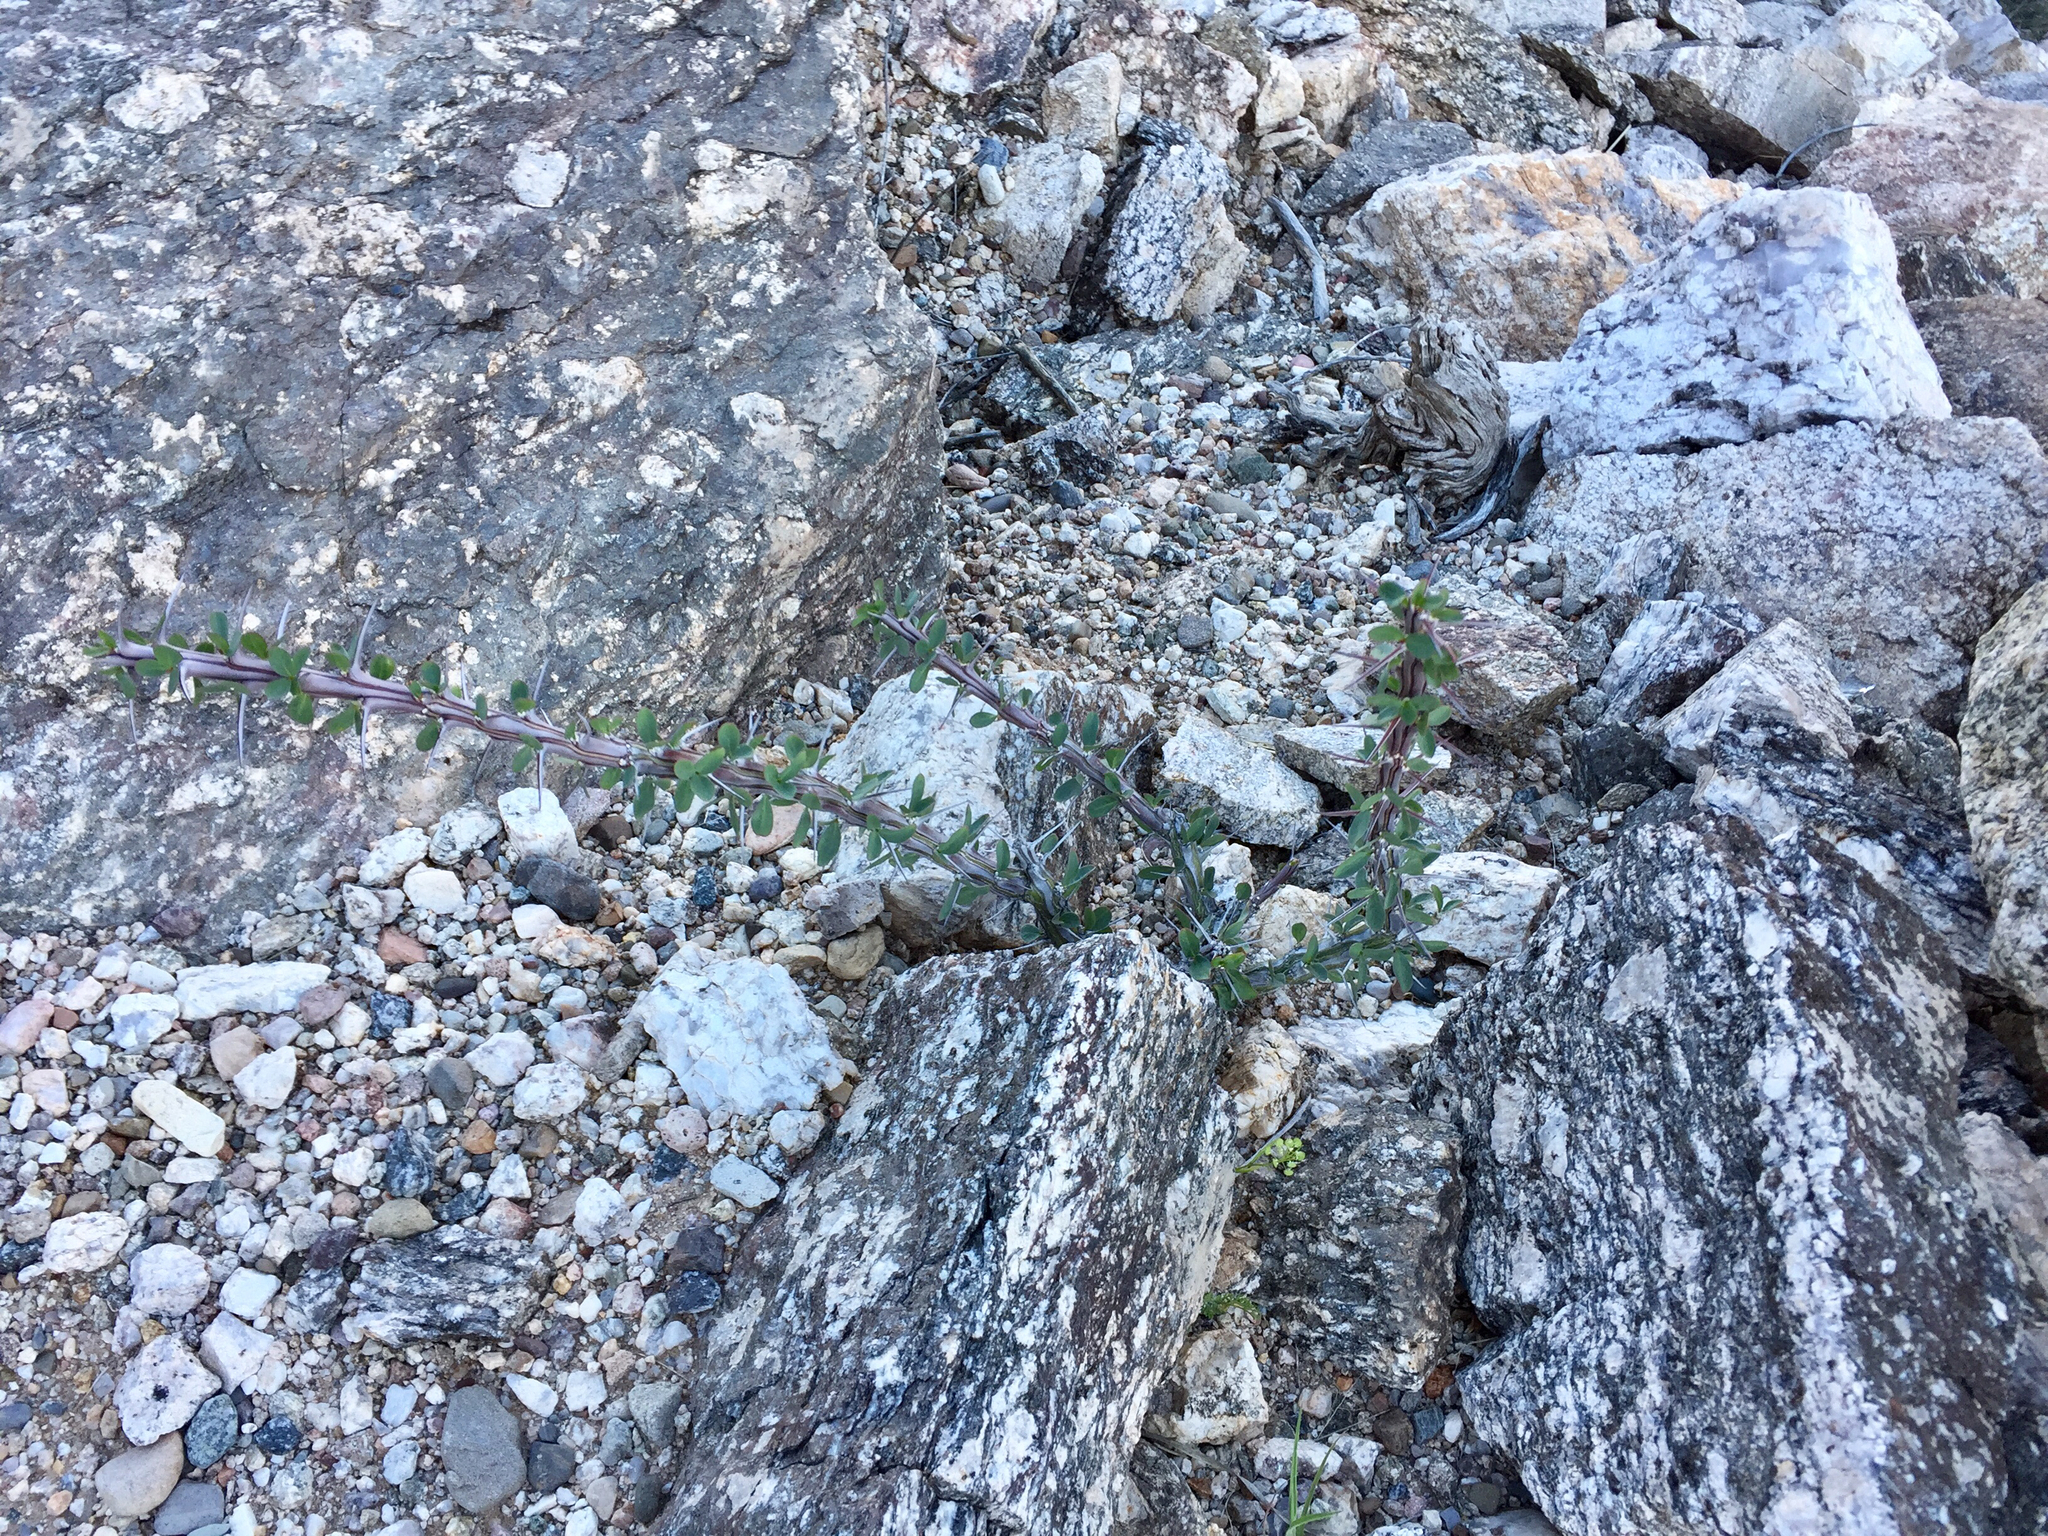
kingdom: Plantae
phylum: Tracheophyta
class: Magnoliopsida
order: Ericales
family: Fouquieriaceae
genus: Fouquieria
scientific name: Fouquieria splendens
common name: Vine-cactus
